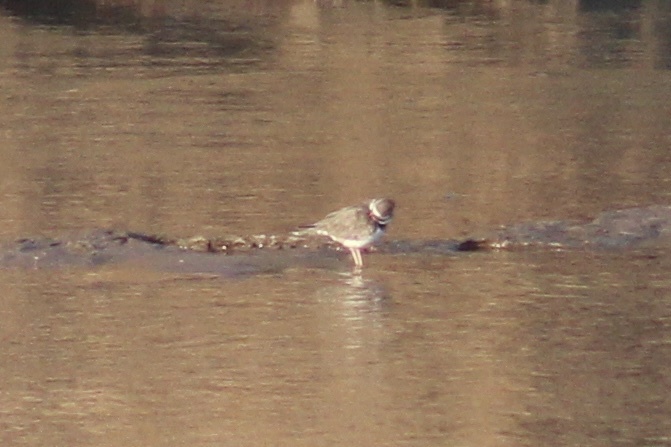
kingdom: Animalia
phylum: Chordata
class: Aves
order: Charadriiformes
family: Charadriidae
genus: Charadrius
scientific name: Charadrius tricollaris
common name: Three-banded plover
